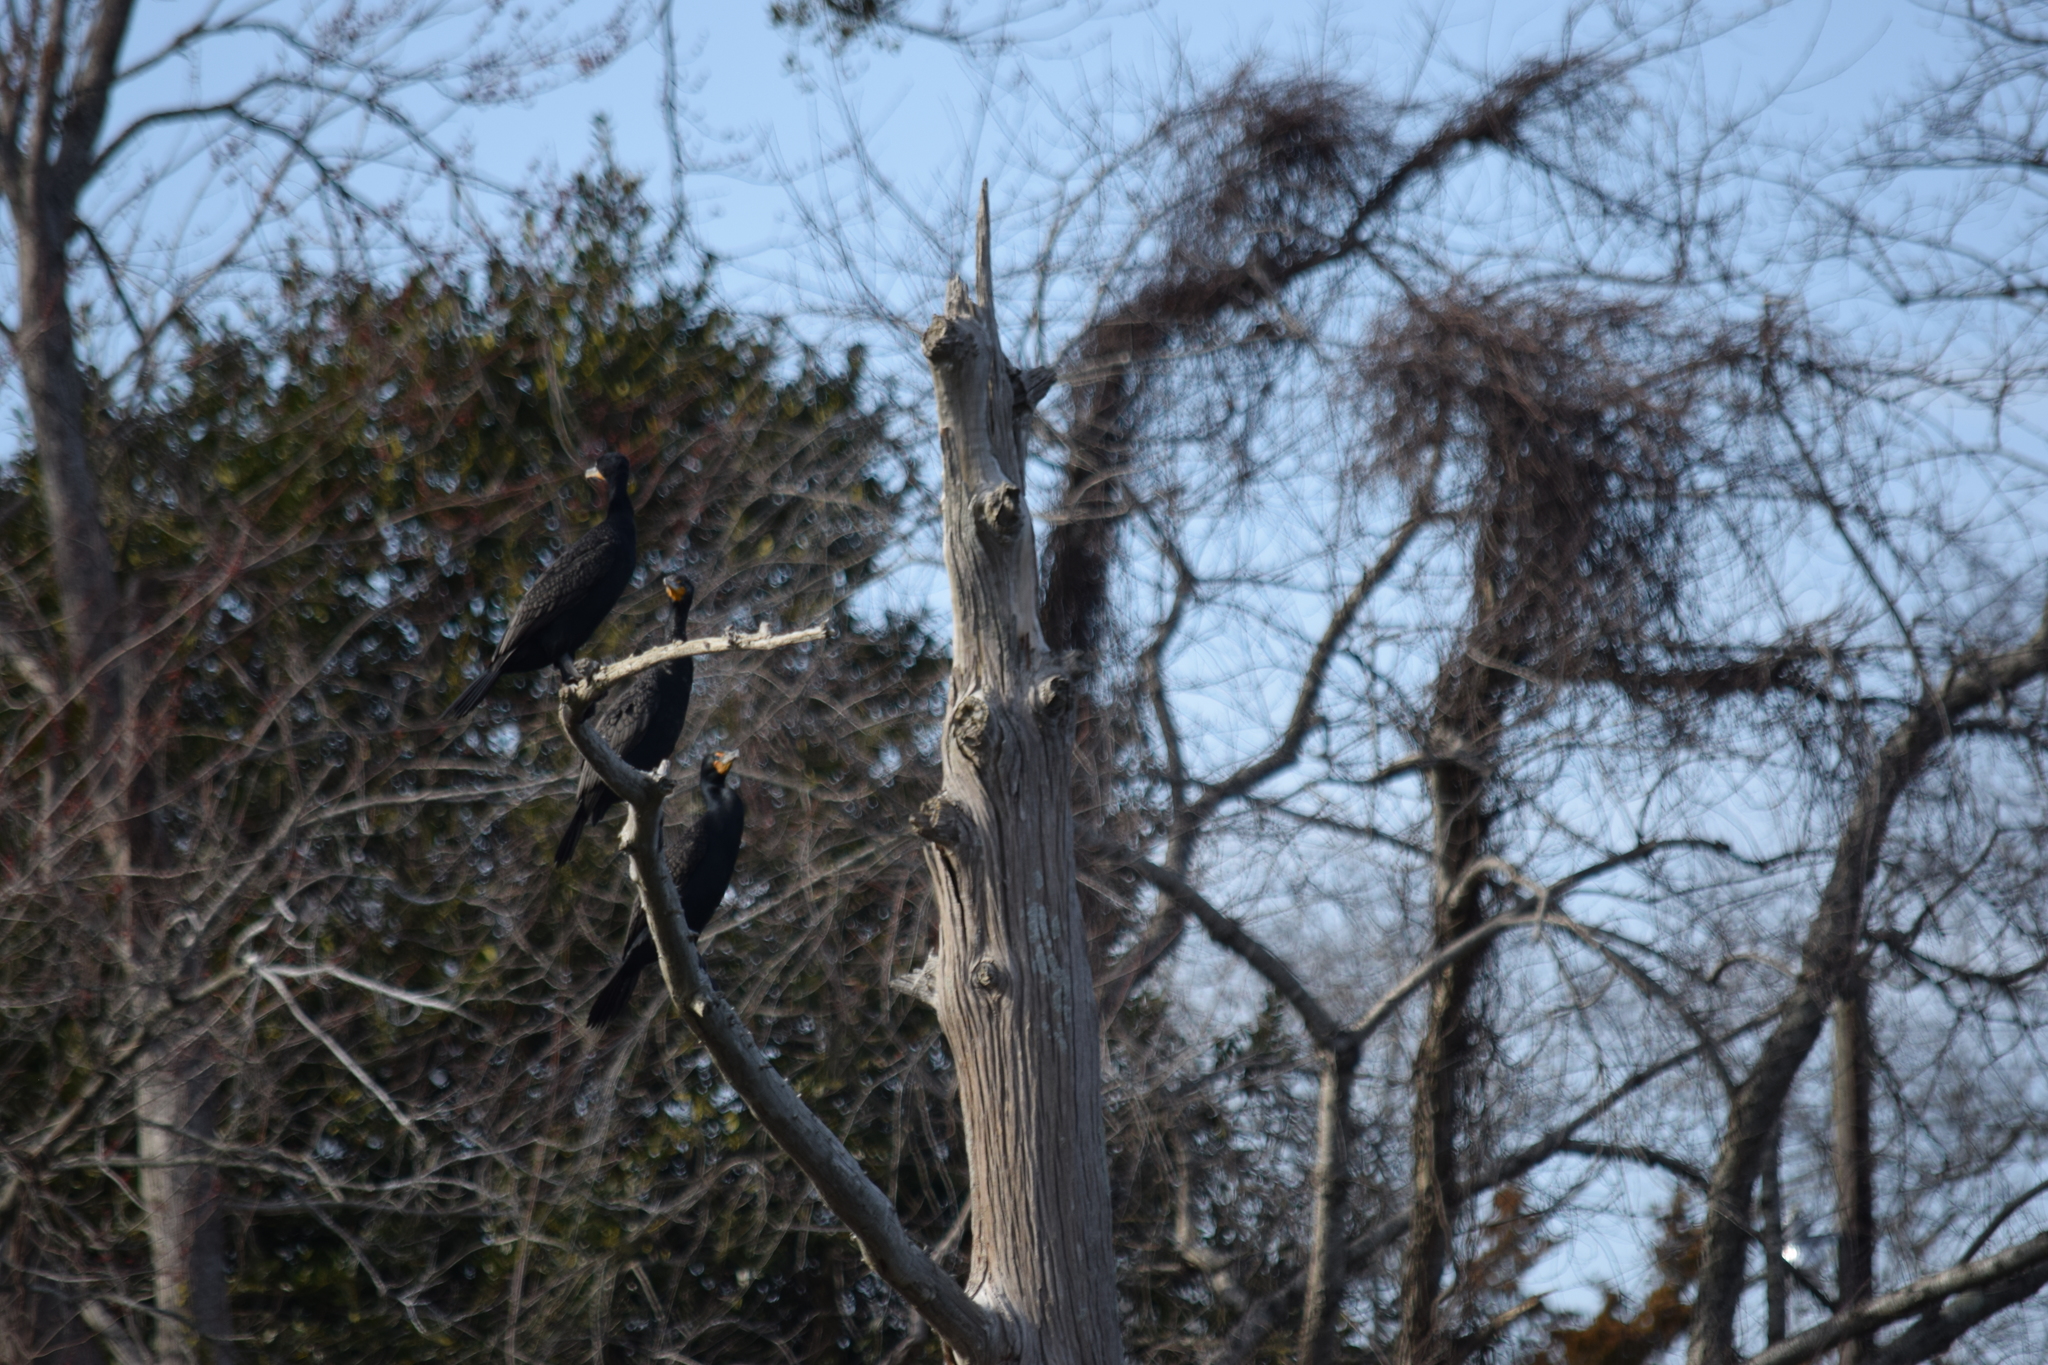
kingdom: Animalia
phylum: Chordata
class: Aves
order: Suliformes
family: Phalacrocoracidae
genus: Phalacrocorax
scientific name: Phalacrocorax auritus
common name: Double-crested cormorant
